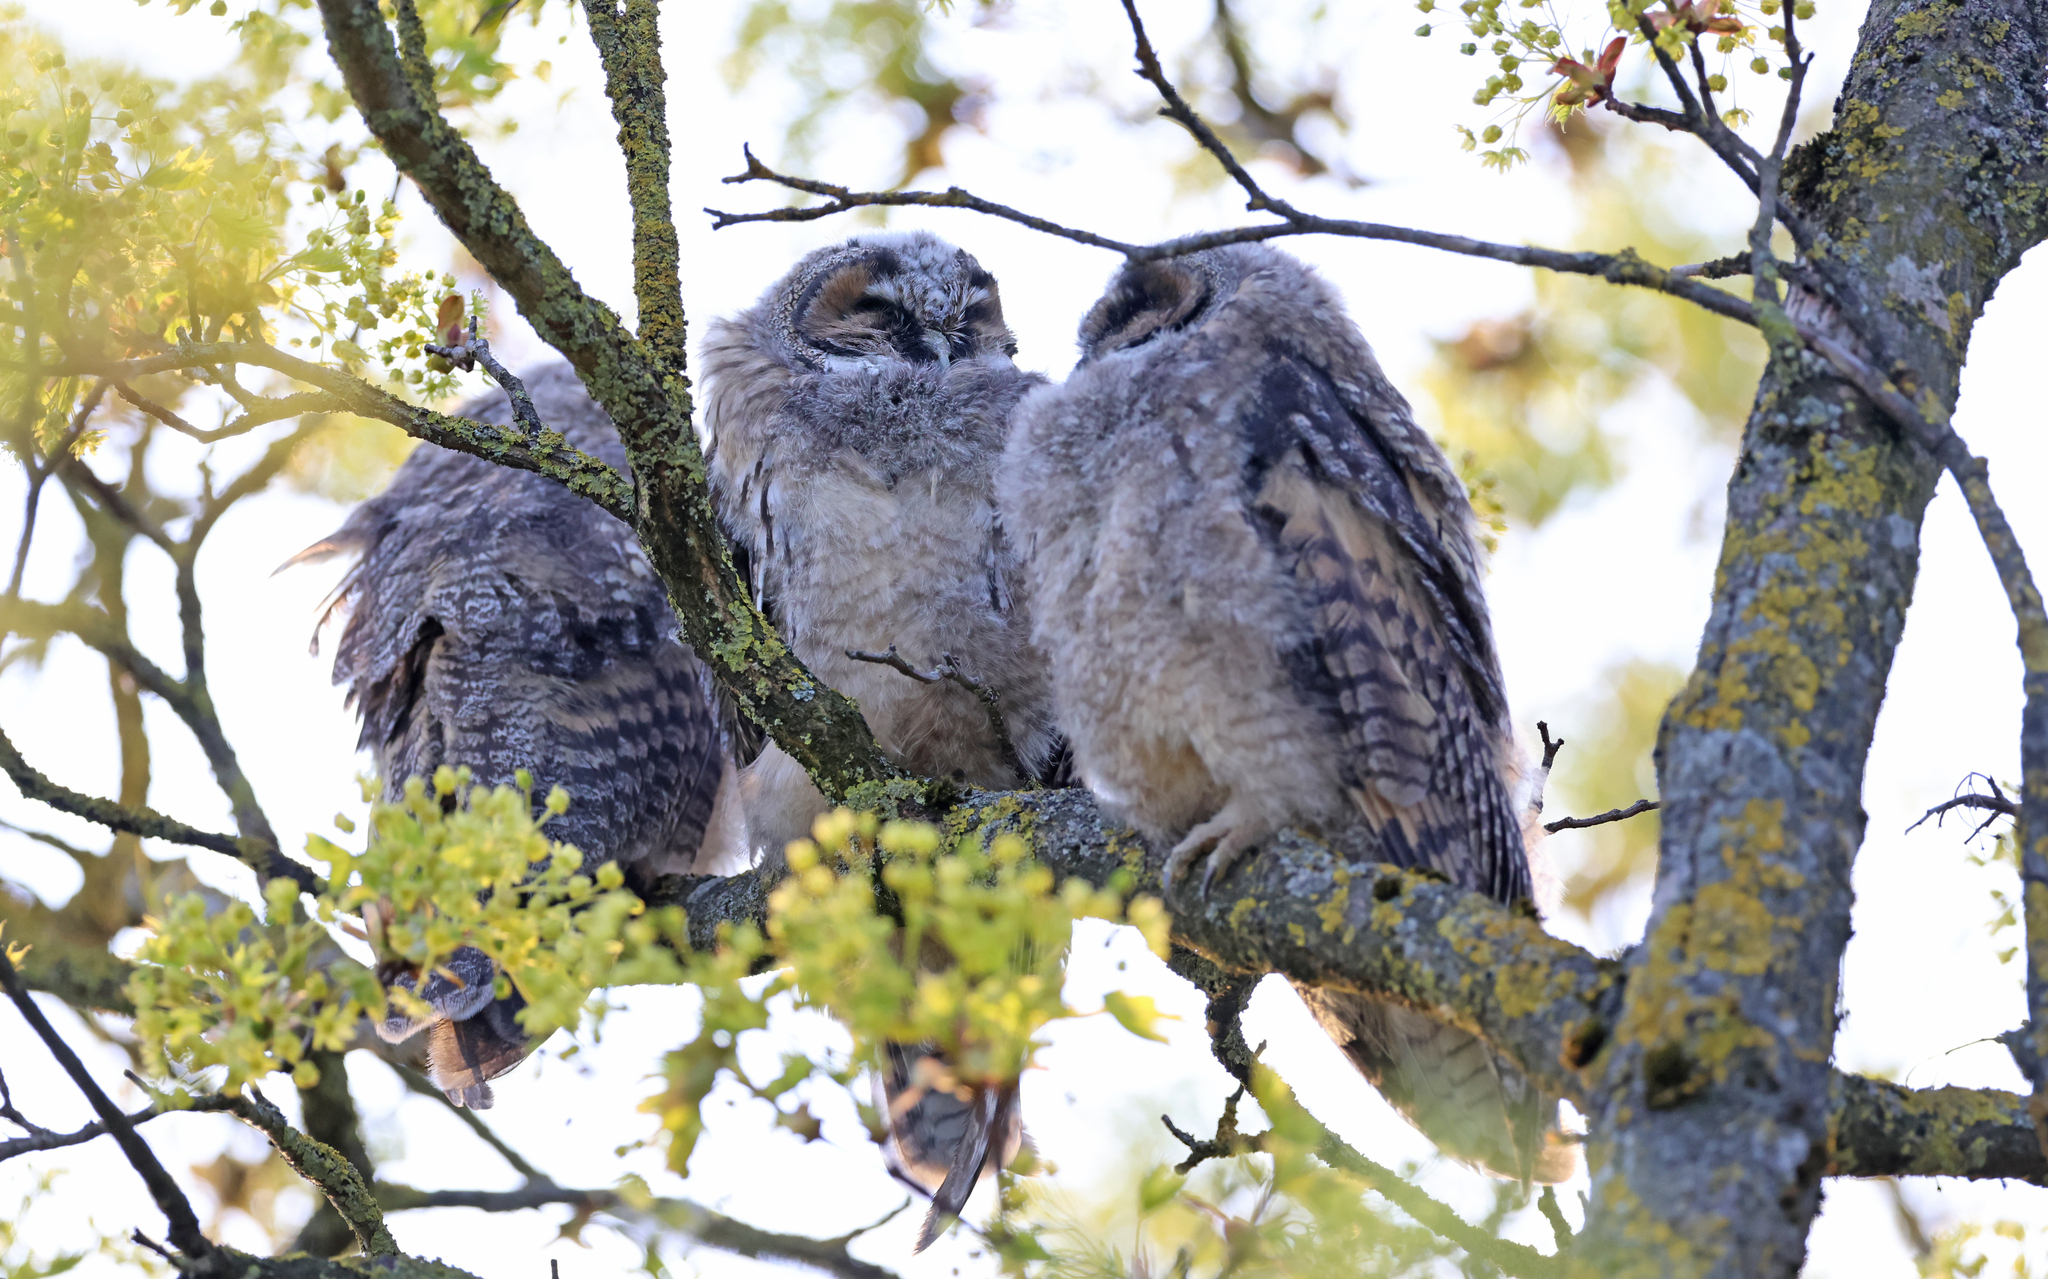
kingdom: Animalia
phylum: Chordata
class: Aves
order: Strigiformes
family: Strigidae
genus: Asio
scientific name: Asio otus
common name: Long-eared owl
